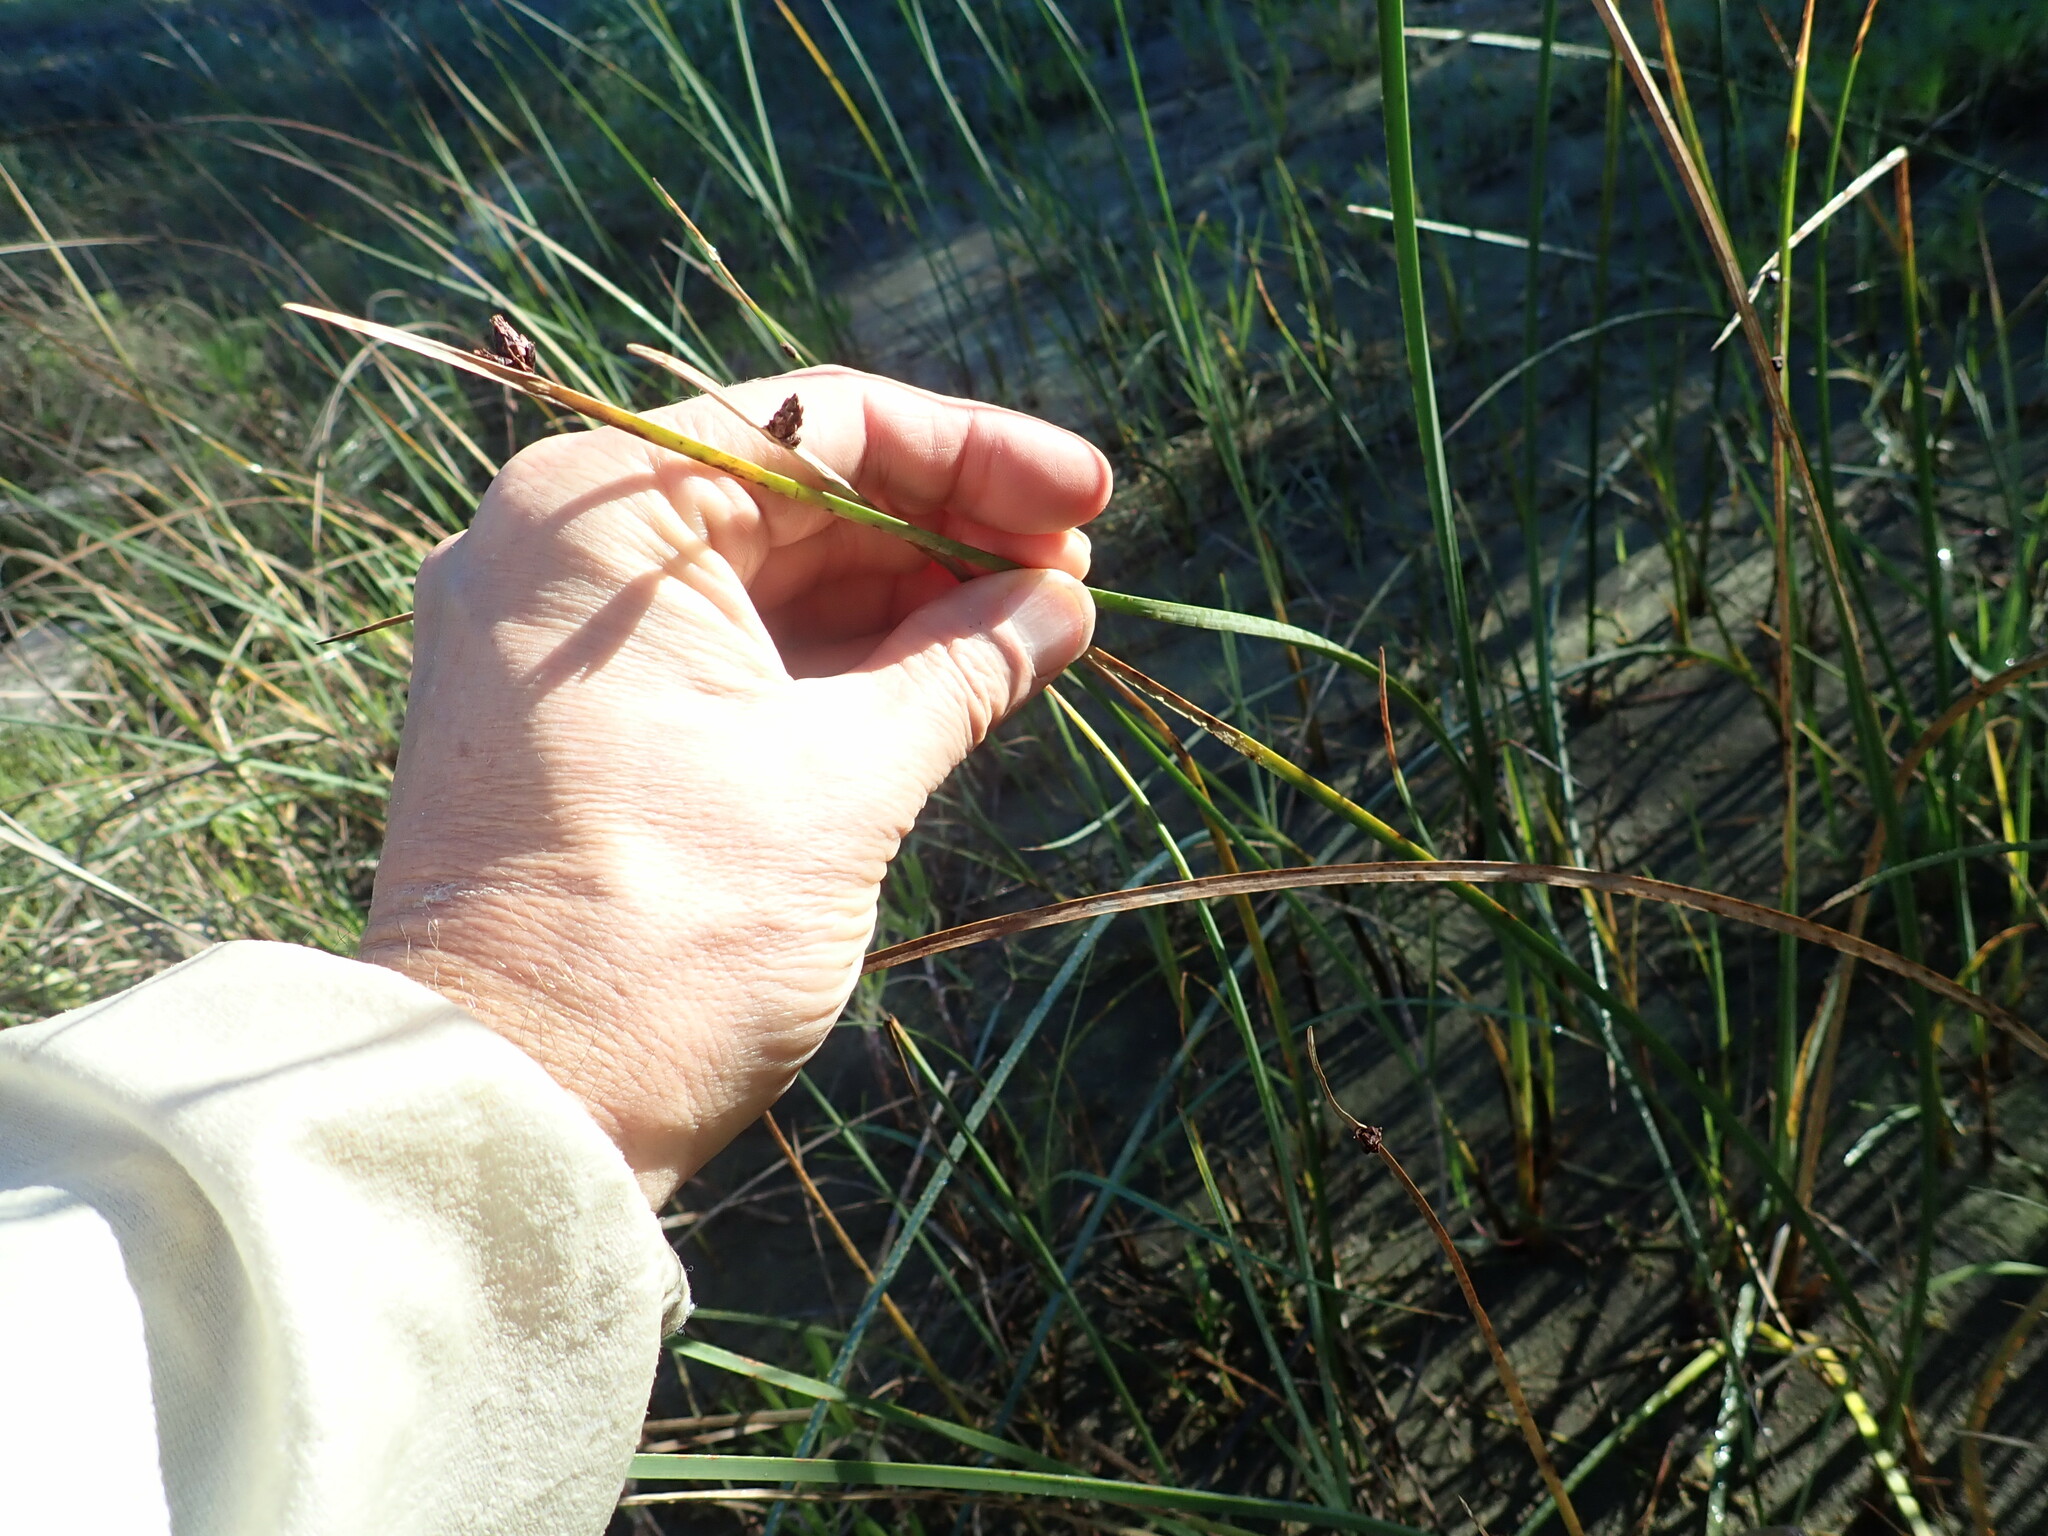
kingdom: Plantae
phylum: Tracheophyta
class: Liliopsida
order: Poales
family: Cyperaceae
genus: Schoenoplectus
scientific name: Schoenoplectus pungens
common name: Sharp club-rush
